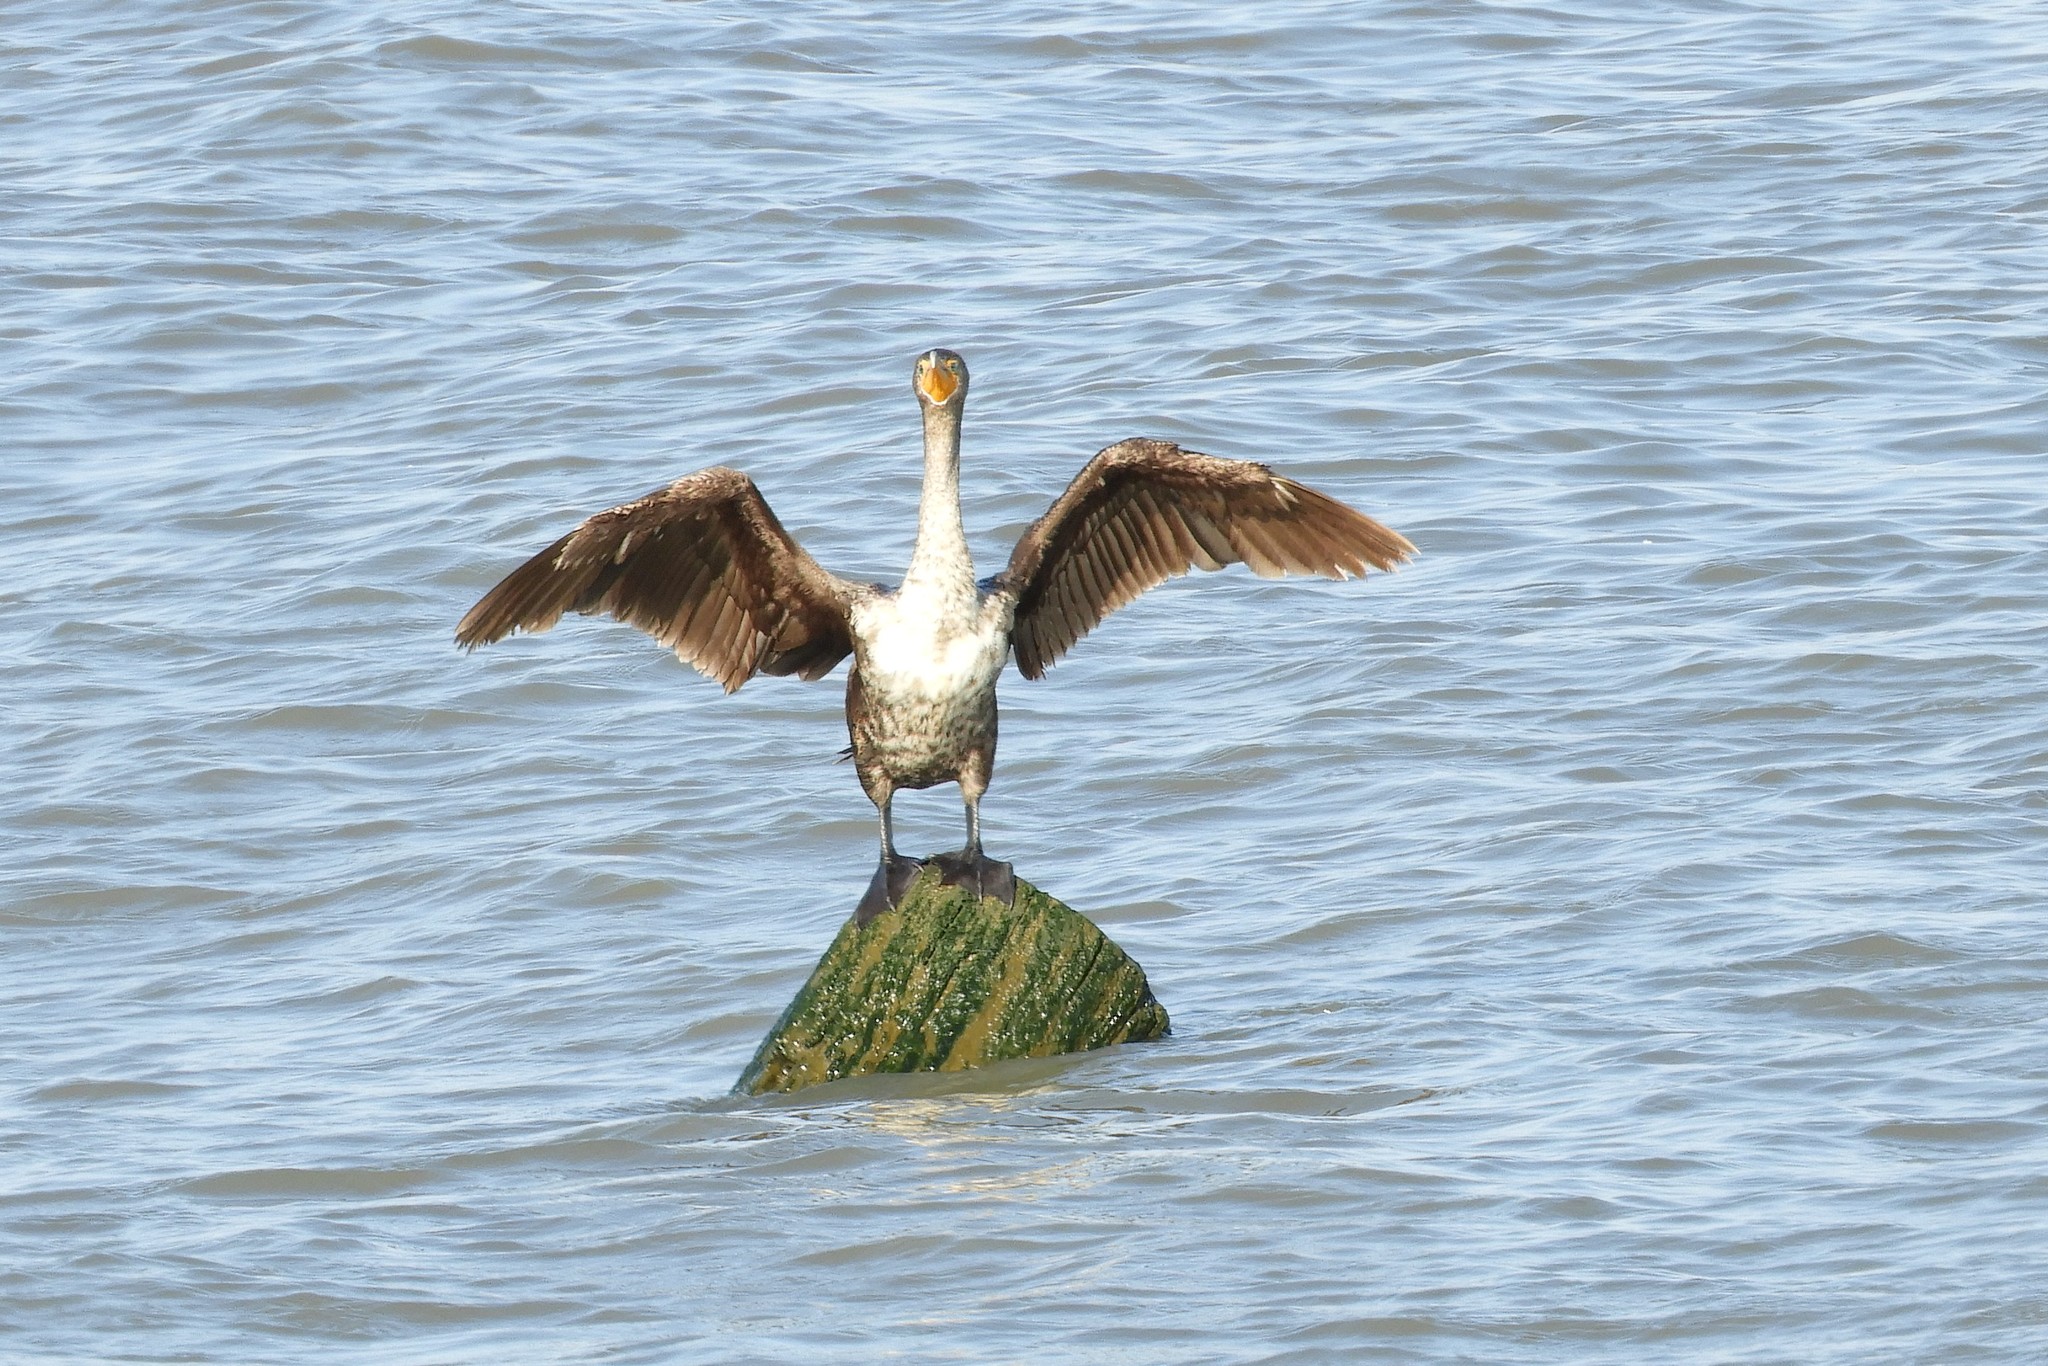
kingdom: Animalia
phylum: Chordata
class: Aves
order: Suliformes
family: Phalacrocoracidae
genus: Phalacrocorax
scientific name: Phalacrocorax auritus
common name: Double-crested cormorant
